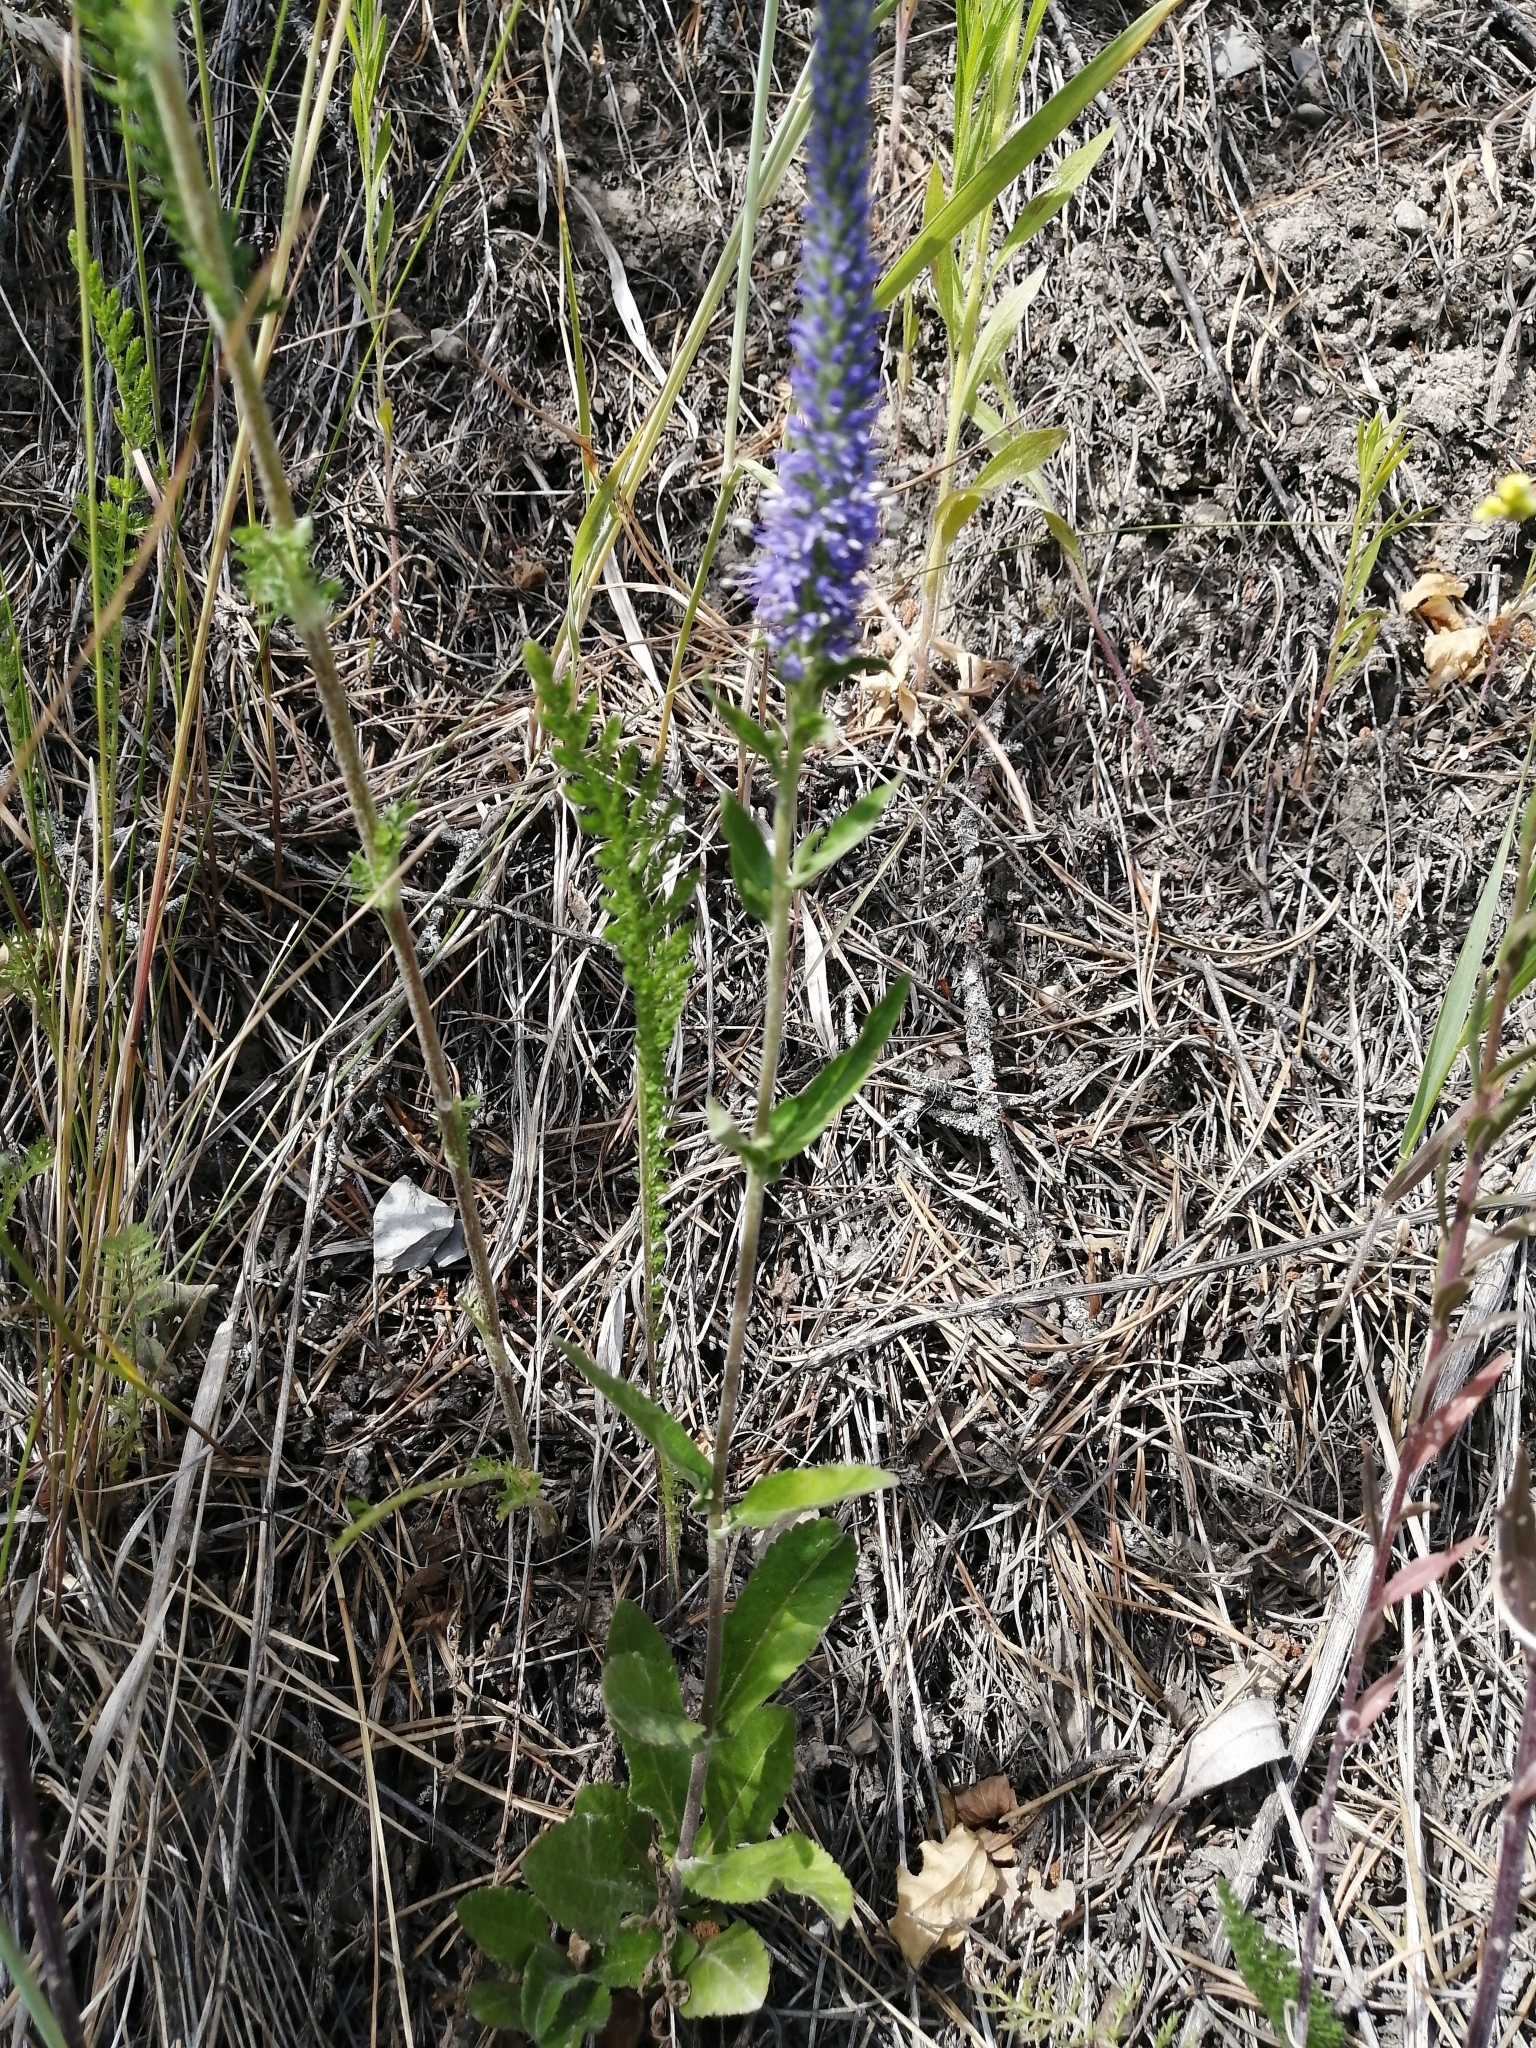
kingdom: Plantae
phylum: Tracheophyta
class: Magnoliopsida
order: Lamiales
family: Plantaginaceae
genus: Veronica
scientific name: Veronica spicata
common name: Spiked speedwell
